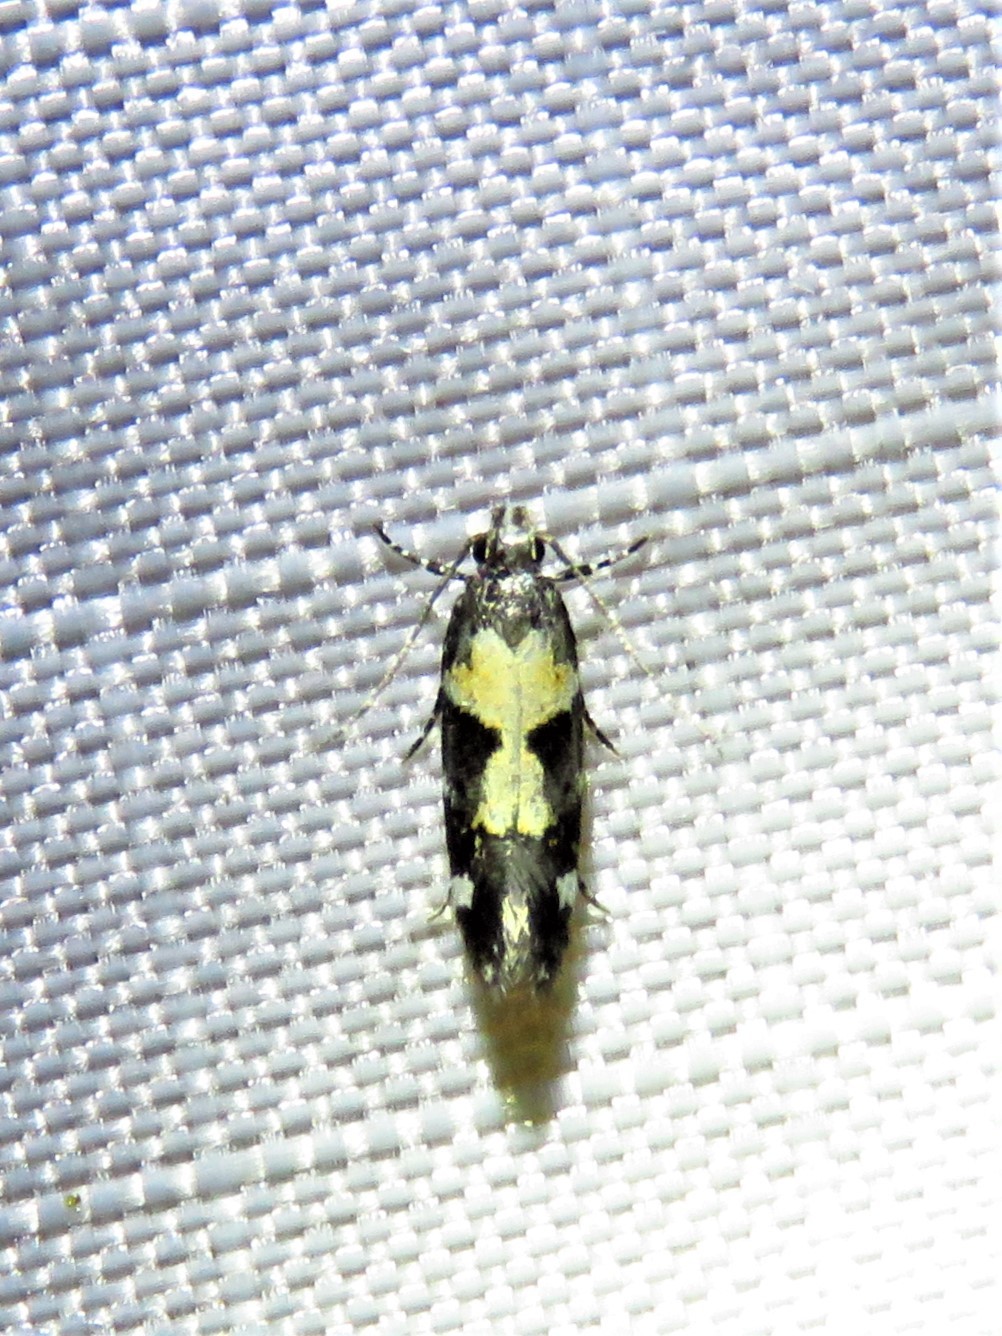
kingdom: Animalia
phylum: Arthropoda
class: Insecta
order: Lepidoptera
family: Gelechiidae
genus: Stegasta
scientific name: Stegasta bosqueella
